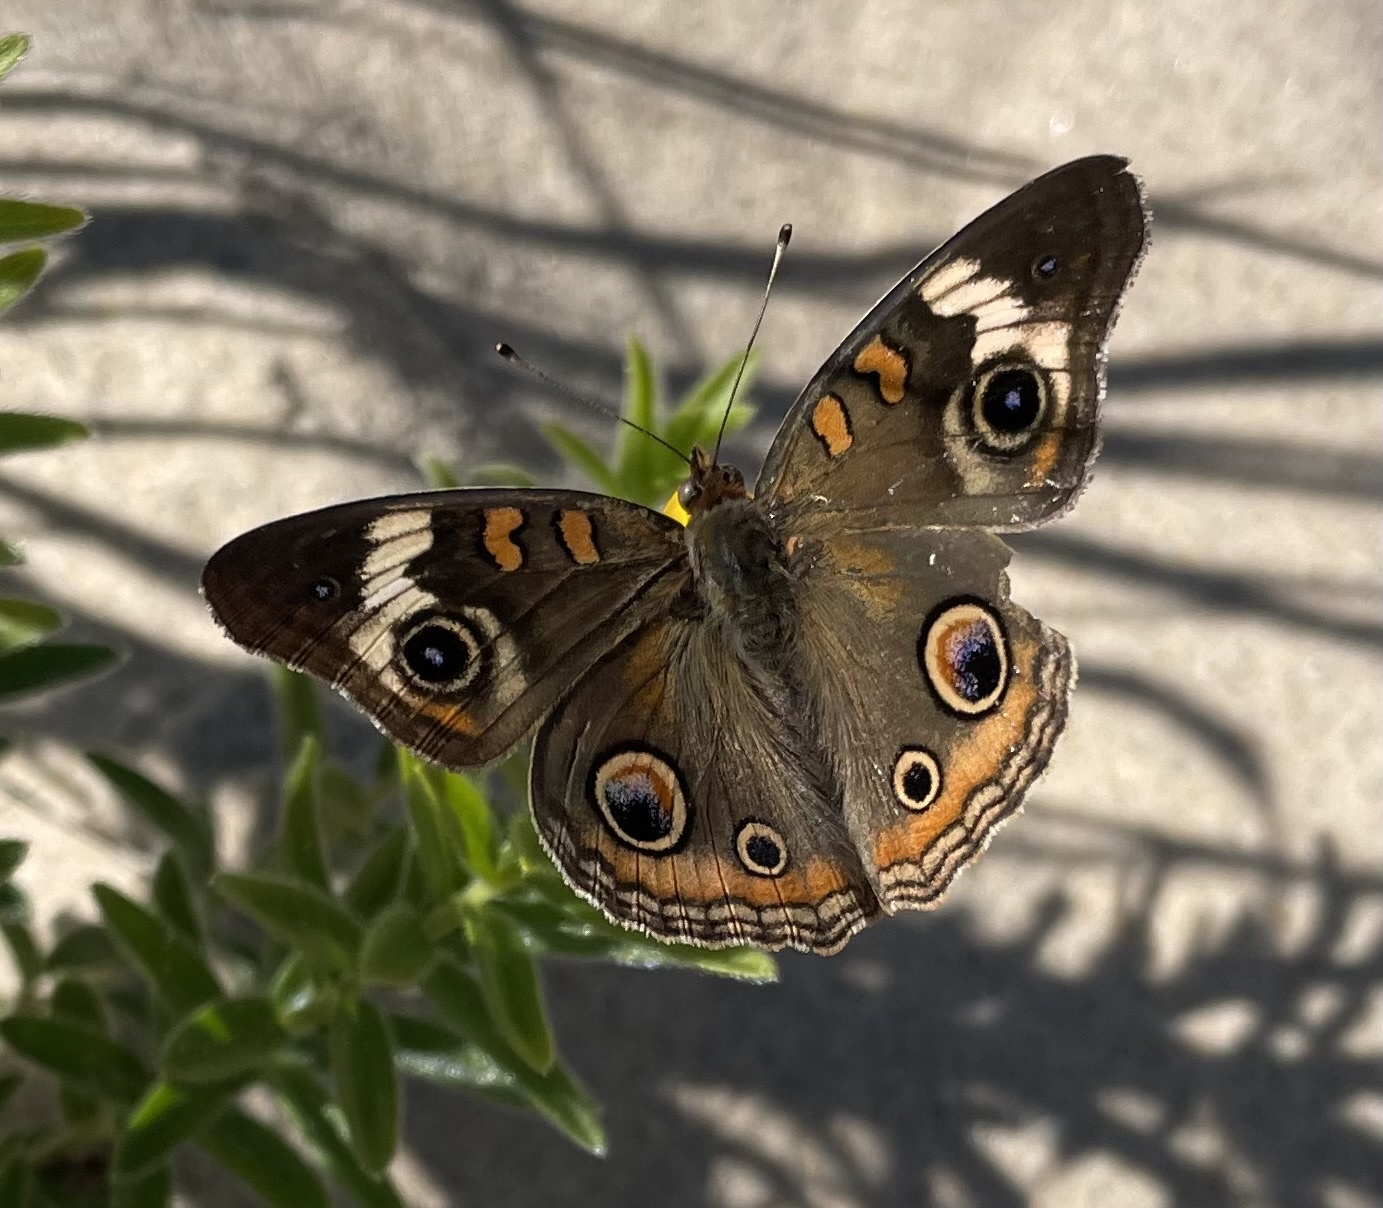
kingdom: Animalia
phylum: Arthropoda
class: Insecta
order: Lepidoptera
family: Nymphalidae
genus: Junonia
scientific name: Junonia coenia
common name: Common buckeye
